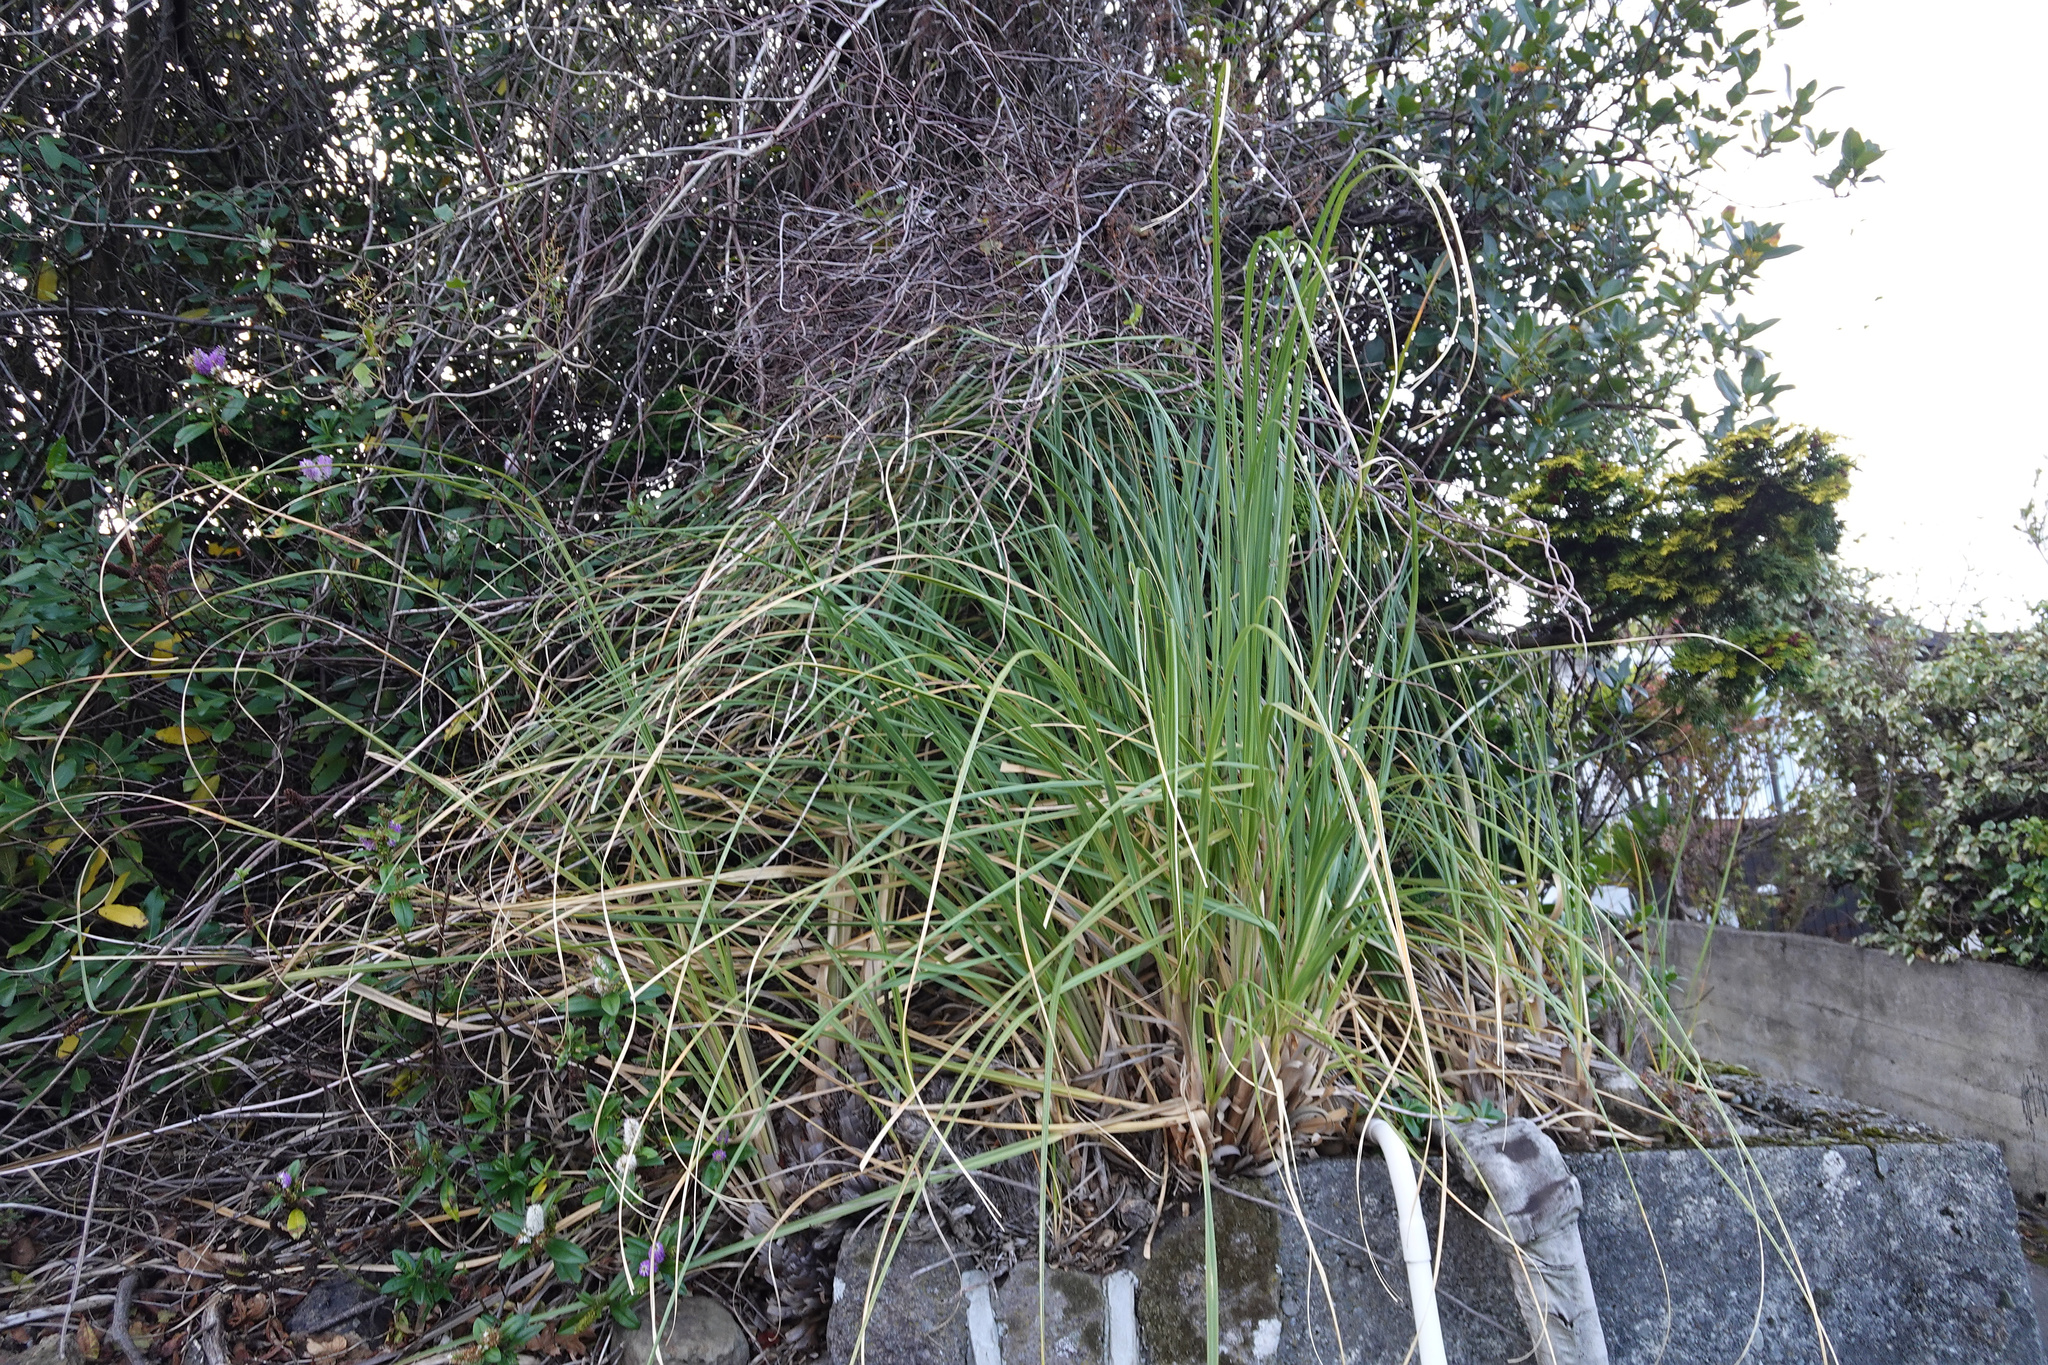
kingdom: Plantae
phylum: Tracheophyta
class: Liliopsida
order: Poales
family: Poaceae
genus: Cortaderia
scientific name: Cortaderia selloana
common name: Uruguayan pampas grass
